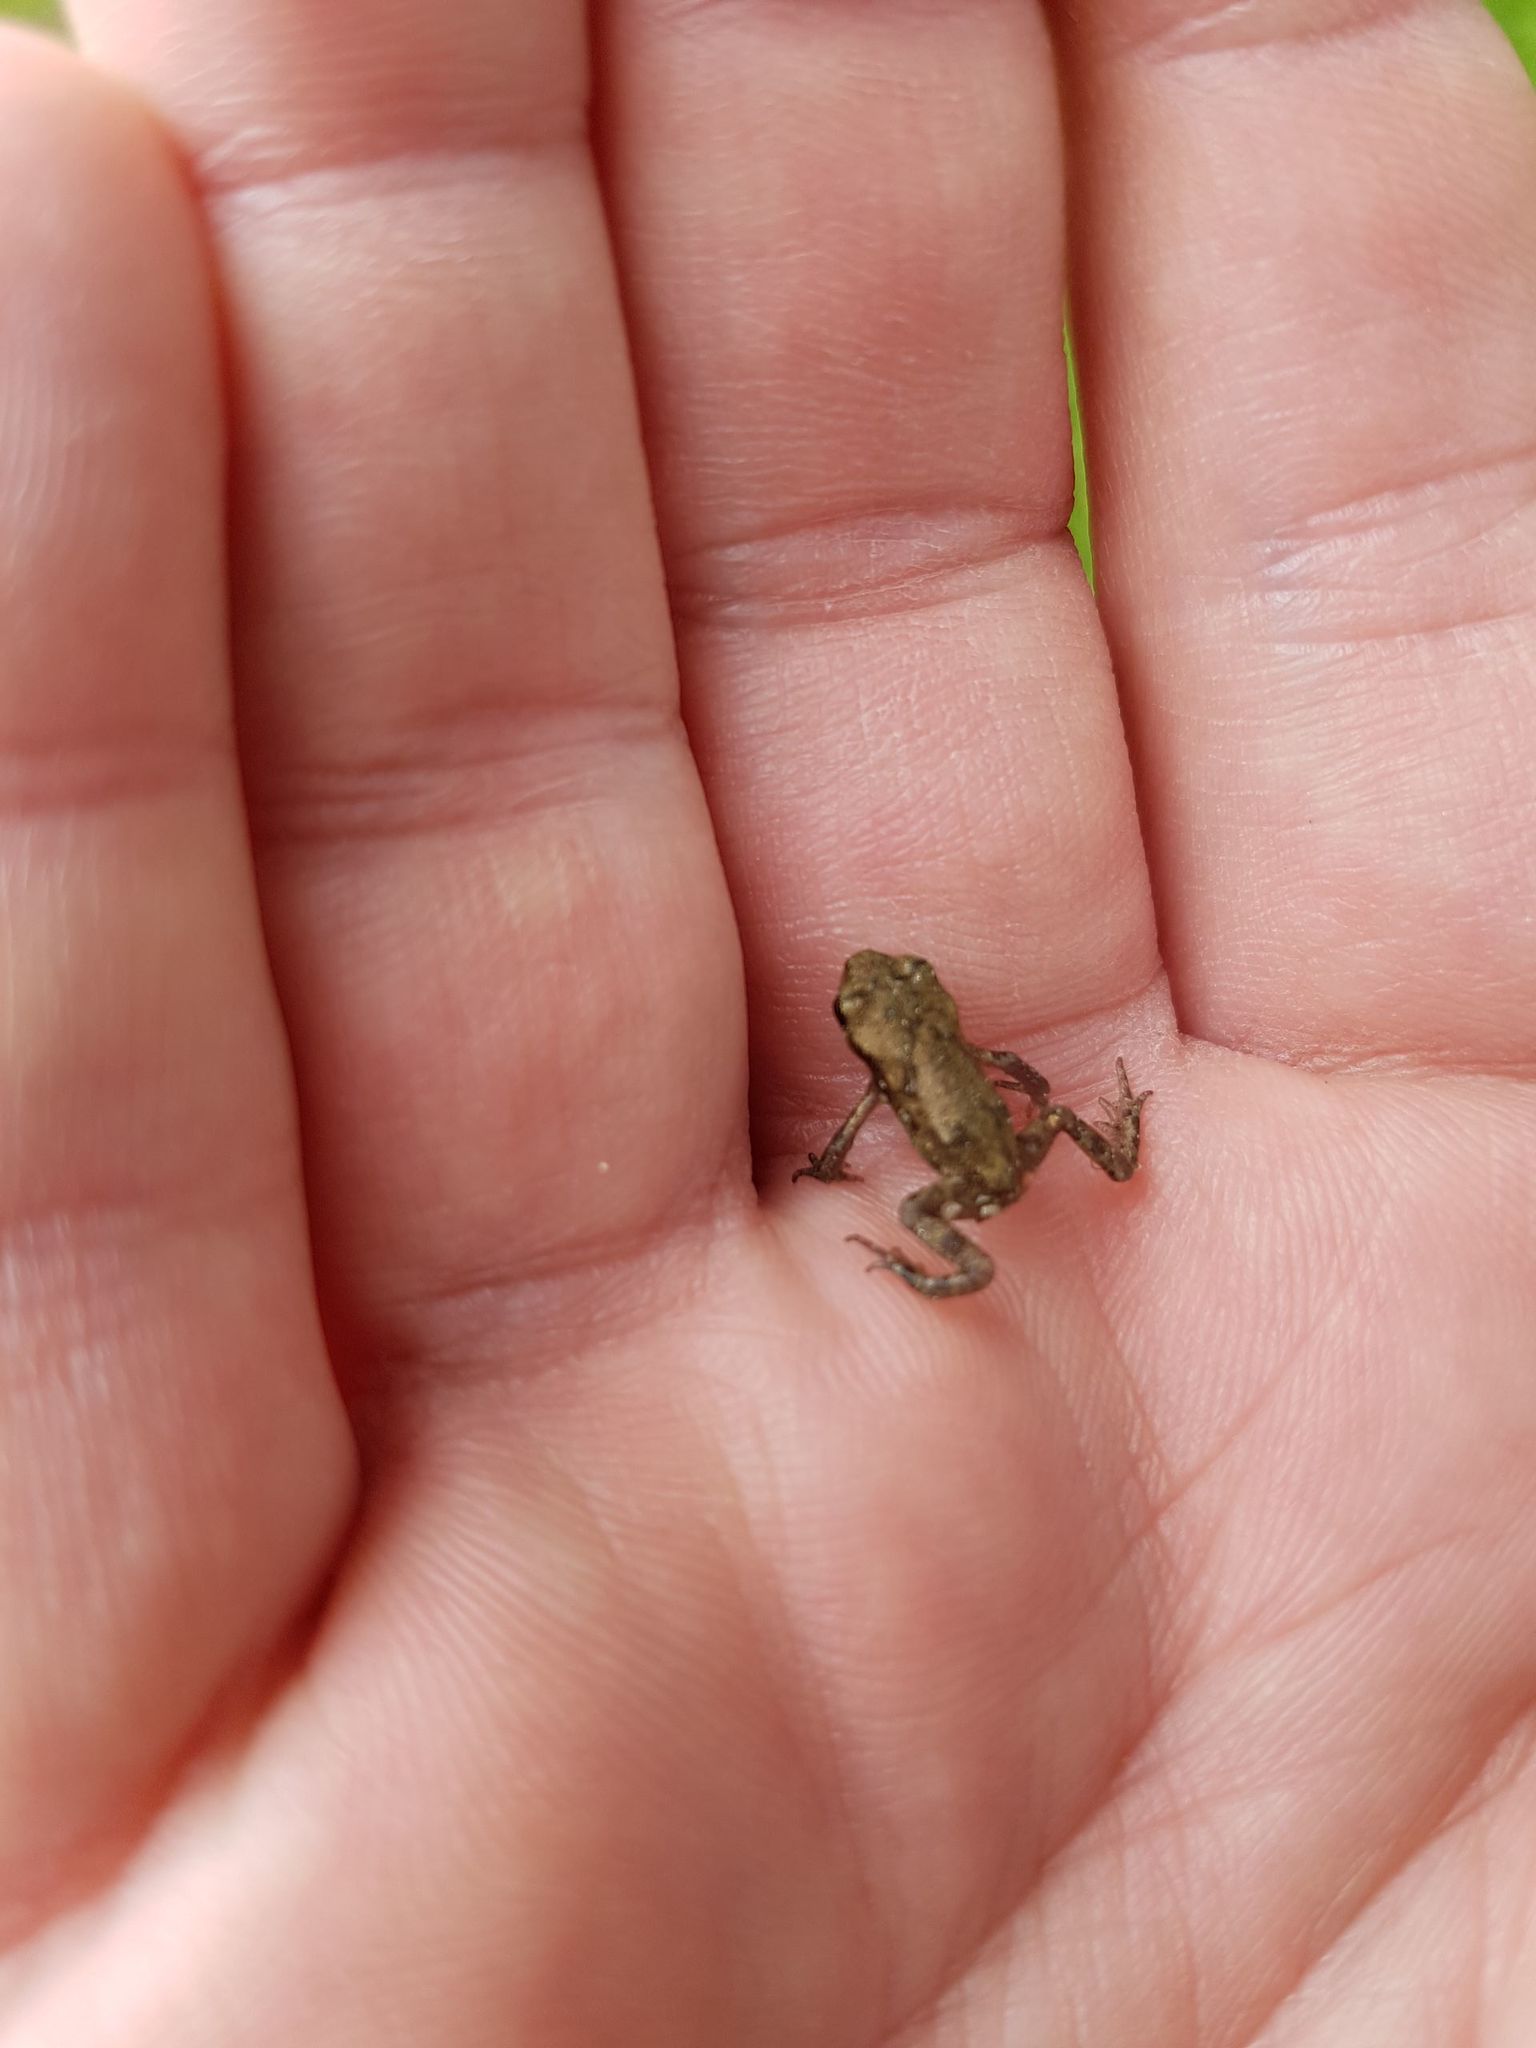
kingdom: Animalia
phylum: Chordata
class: Amphibia
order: Anura
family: Bufonidae
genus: Bufo
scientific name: Bufo bufo
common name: Common toad
